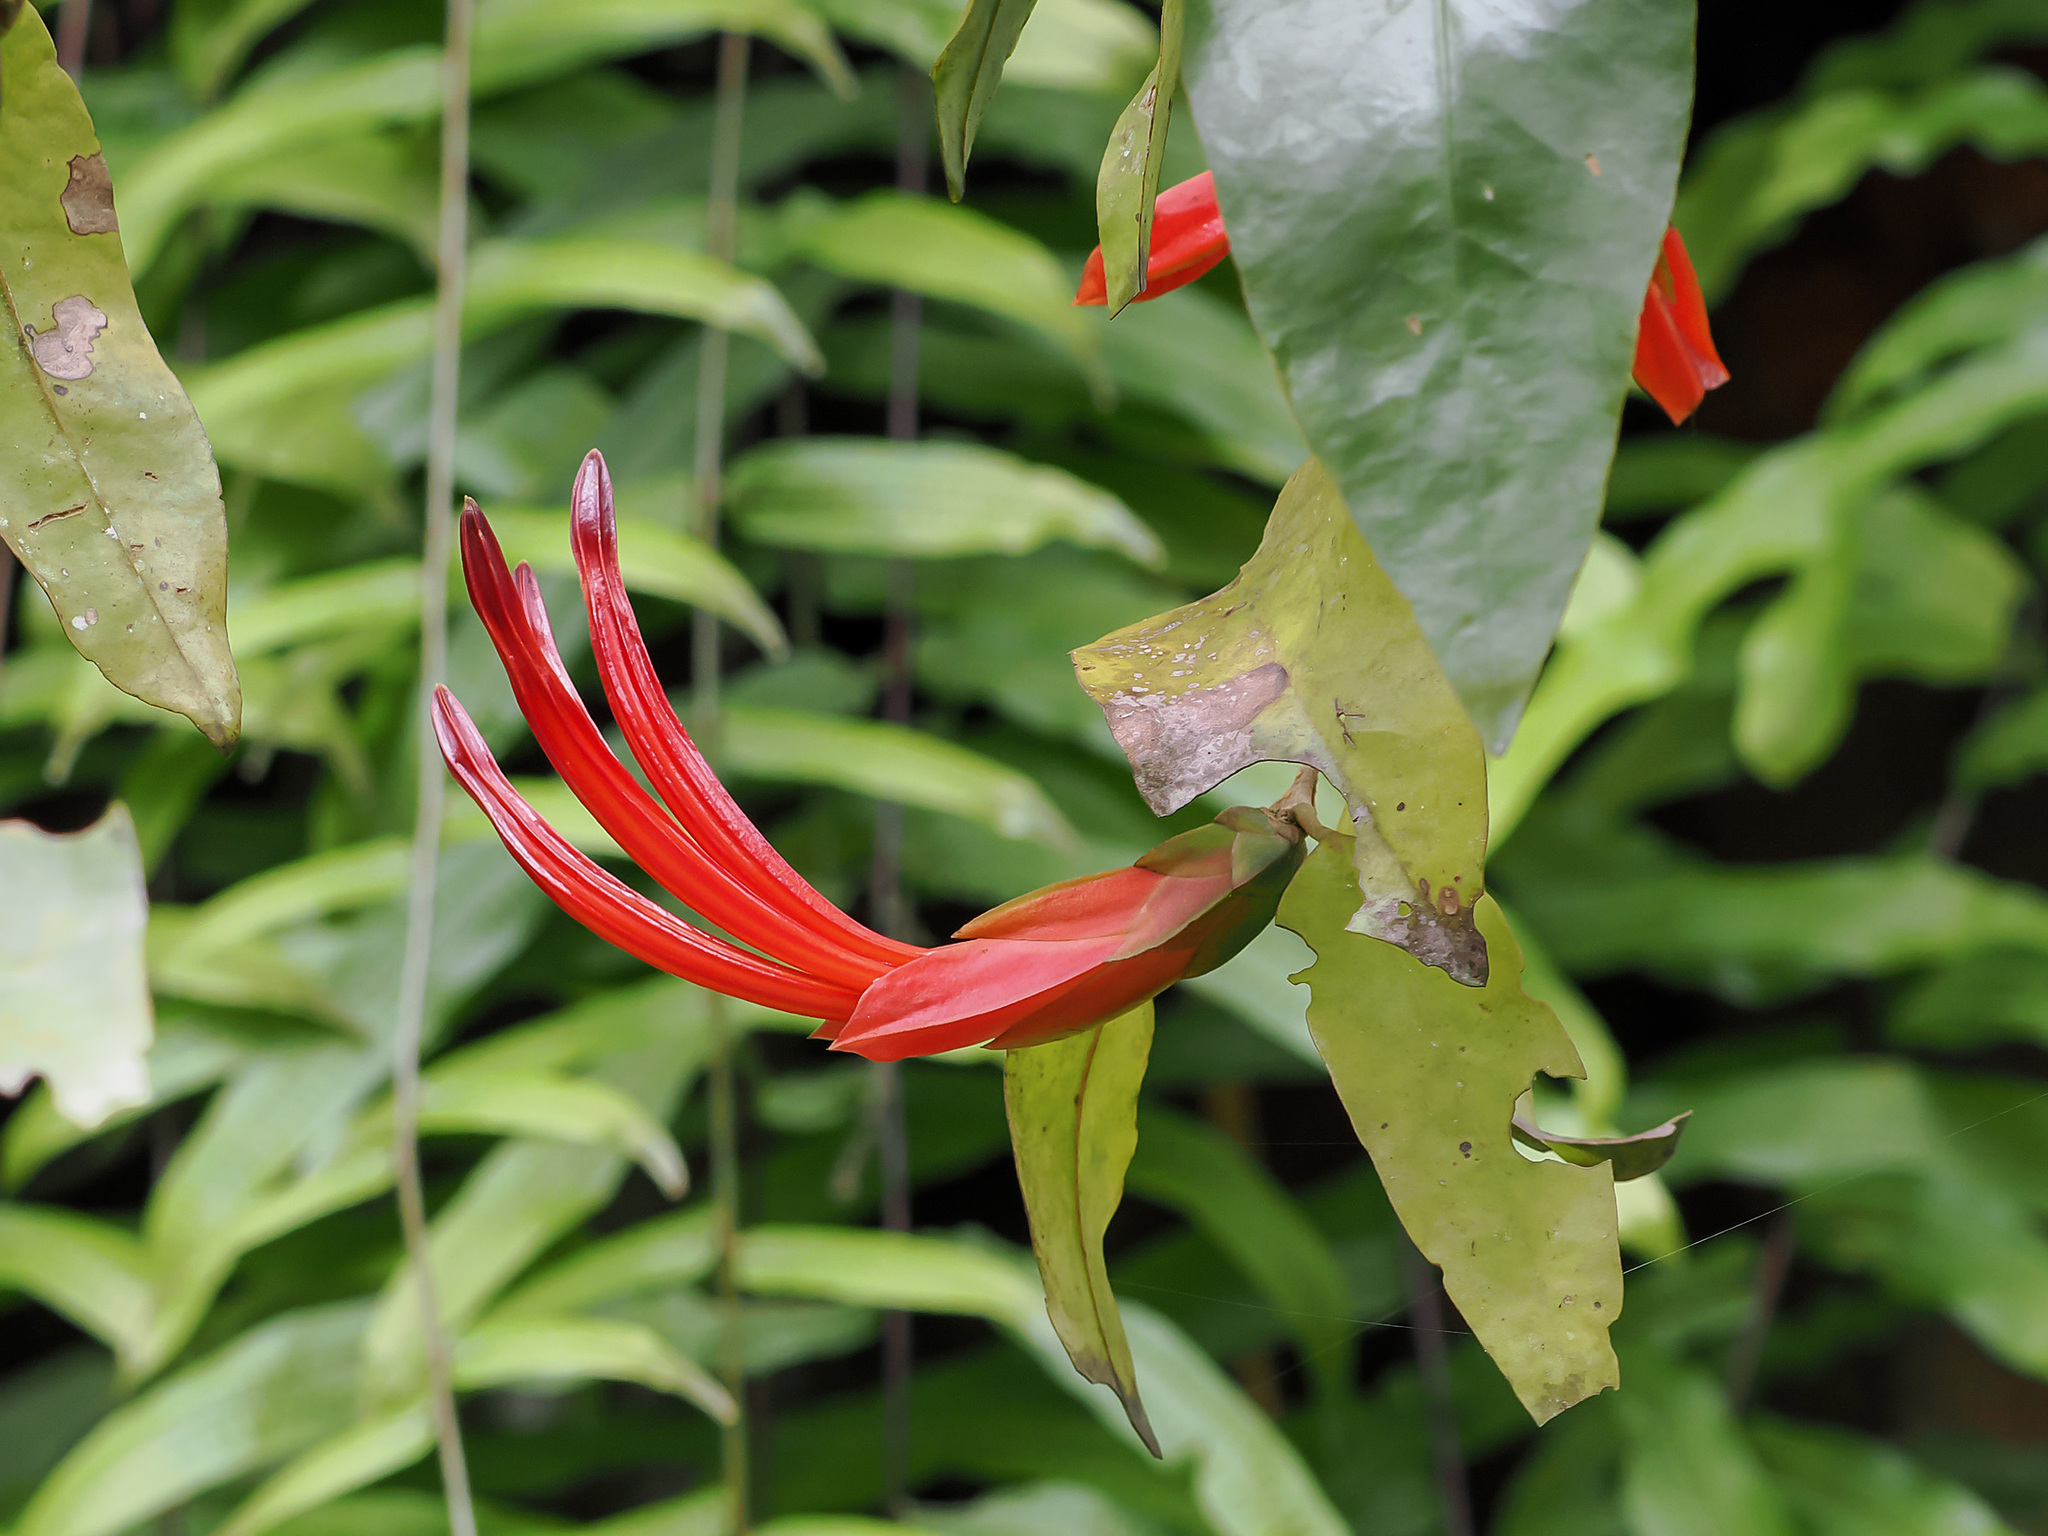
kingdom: Plantae
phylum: Tracheophyta
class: Magnoliopsida
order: Santalales
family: Loranthaceae
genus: Lepidaria
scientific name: Lepidaria kingii
